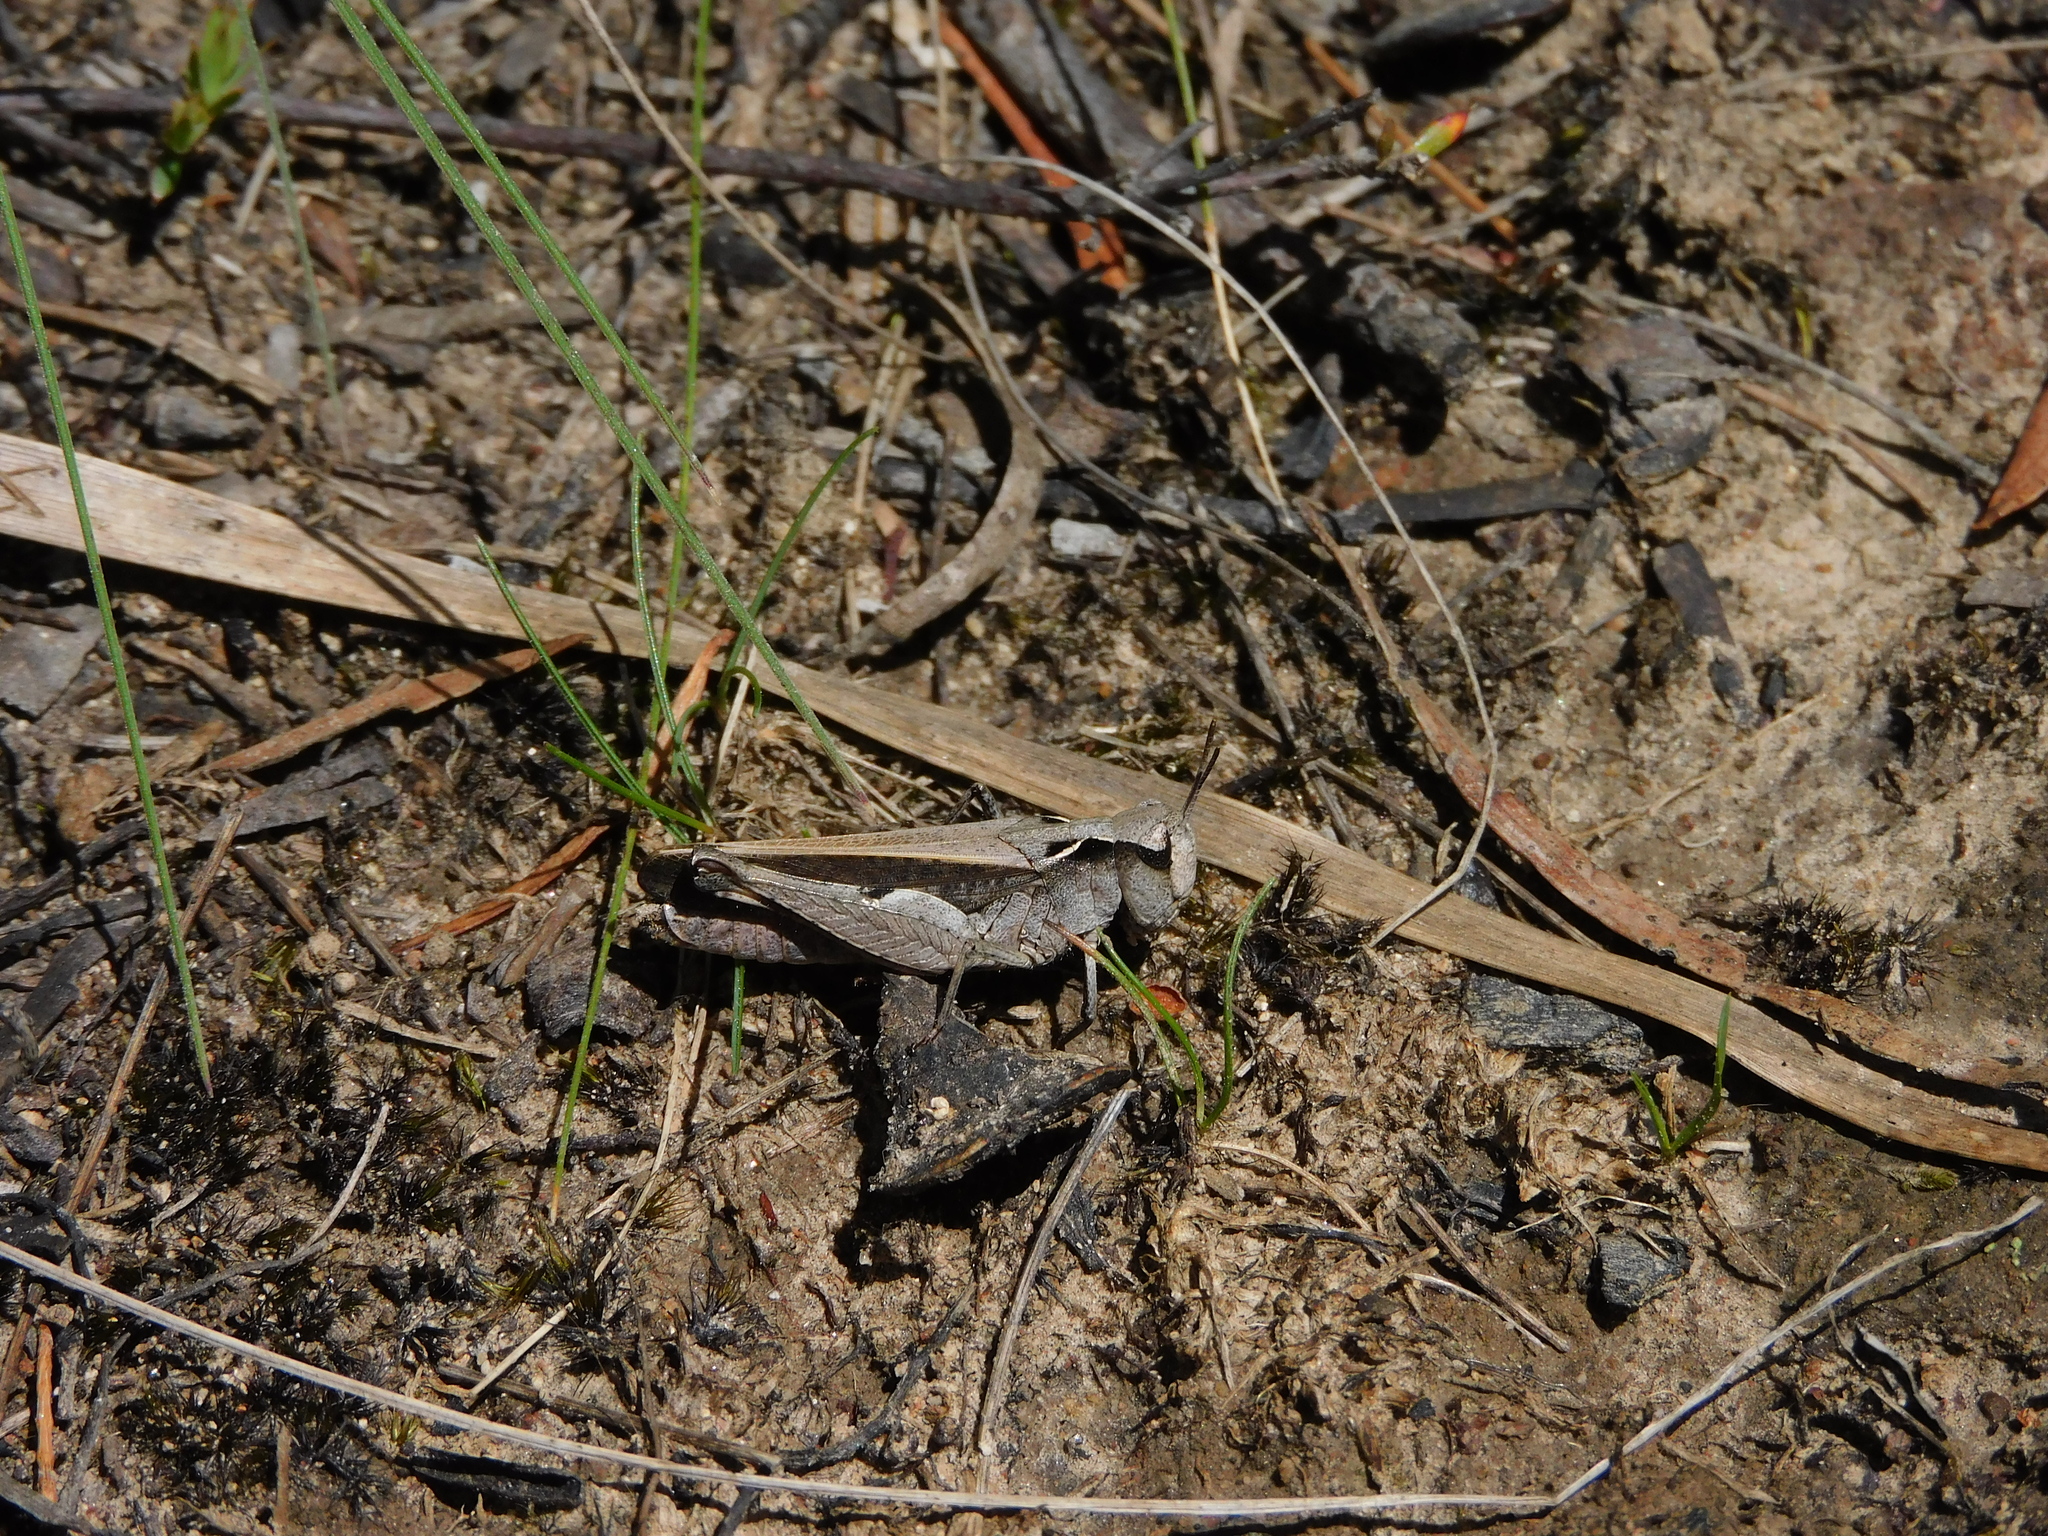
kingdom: Animalia
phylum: Arthropoda
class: Insecta
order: Orthoptera
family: Acrididae
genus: Cryptobothrus
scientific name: Cryptobothrus chrysophorus
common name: Golden bandwing
